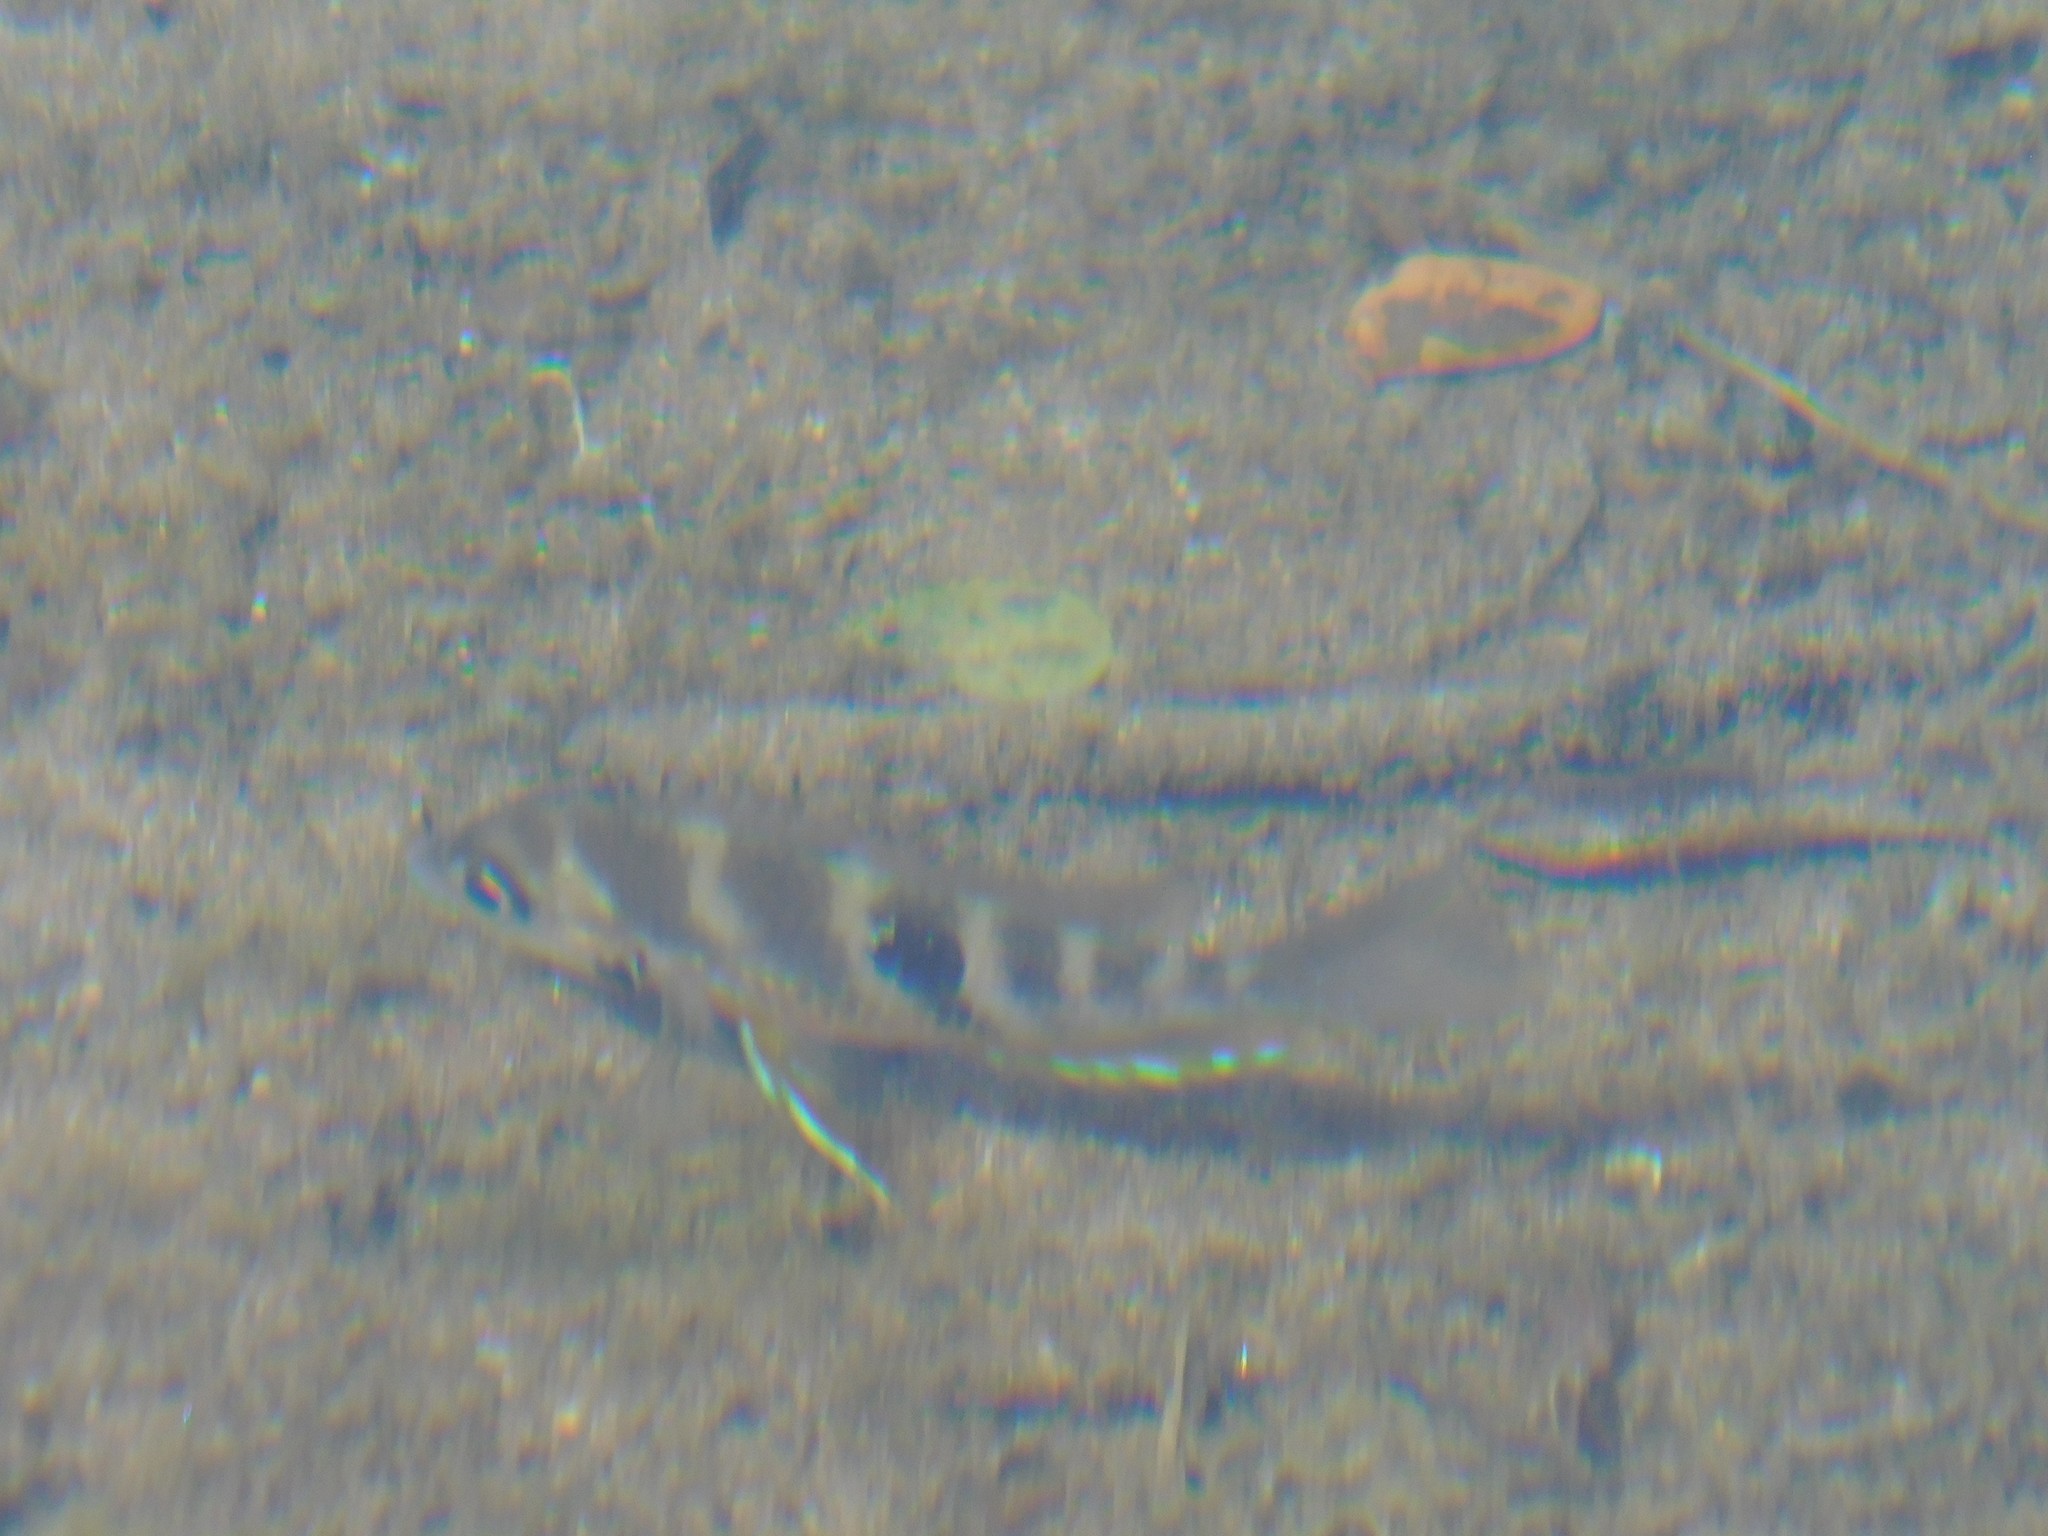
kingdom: Animalia
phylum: Chordata
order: Perciformes
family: Cichlidae
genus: Thorichthys
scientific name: Thorichthys maculipinnis
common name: Spotcheek cichlid
